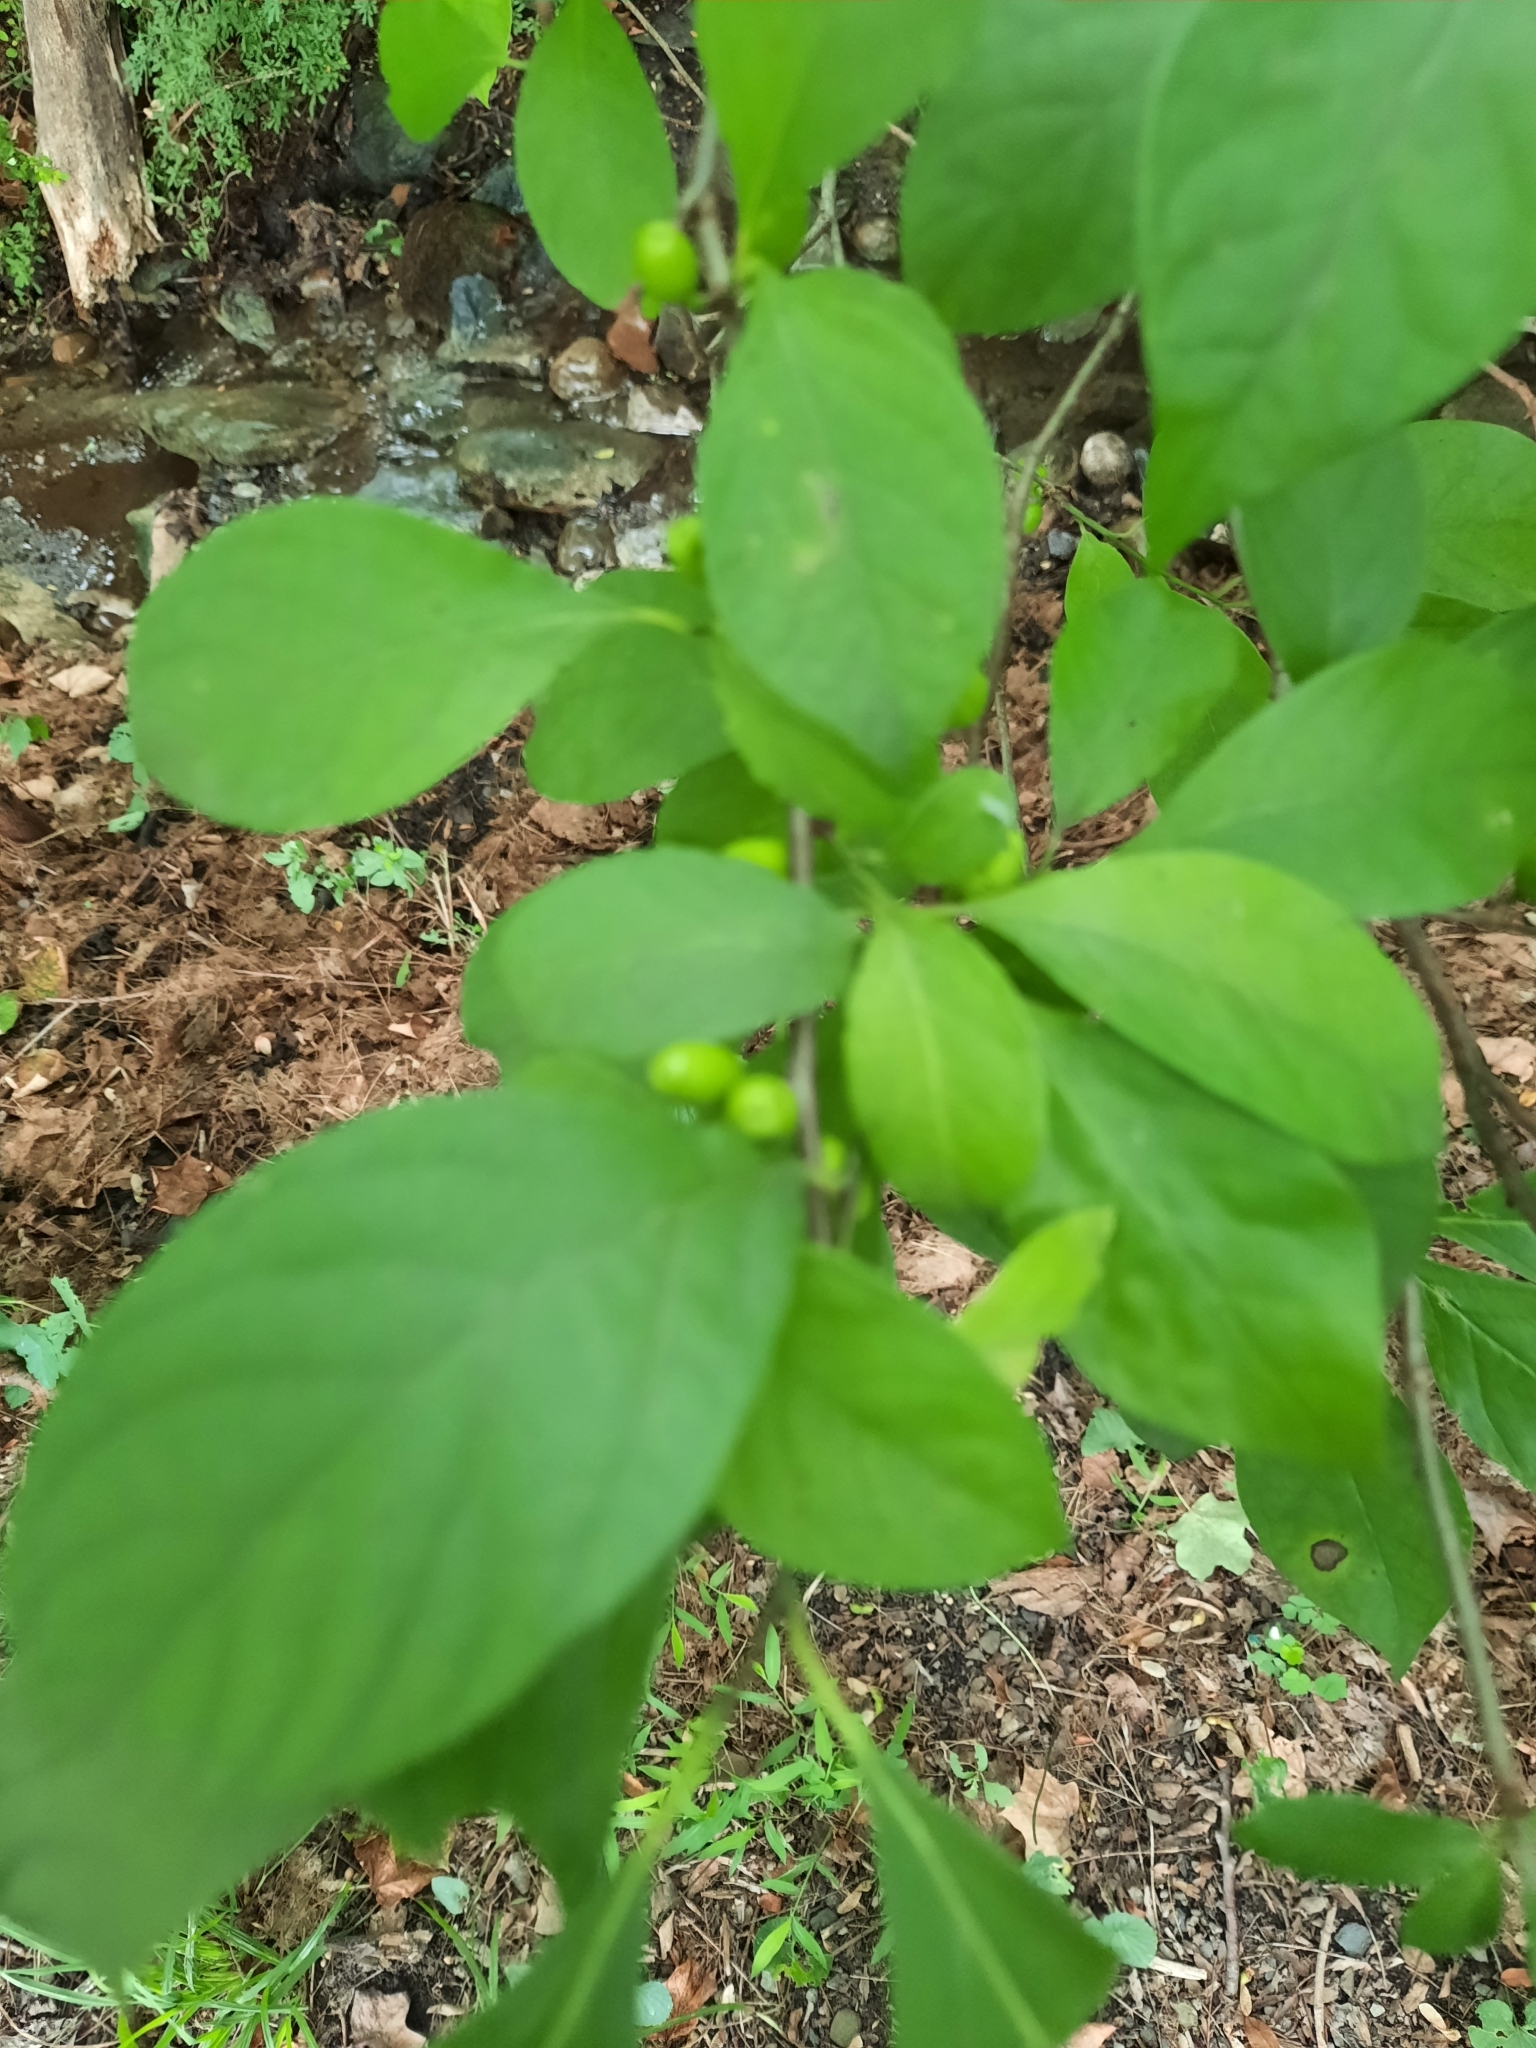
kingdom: Plantae
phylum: Tracheophyta
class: Magnoliopsida
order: Laurales
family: Lauraceae
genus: Lindera
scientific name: Lindera benzoin
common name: Spicebush
